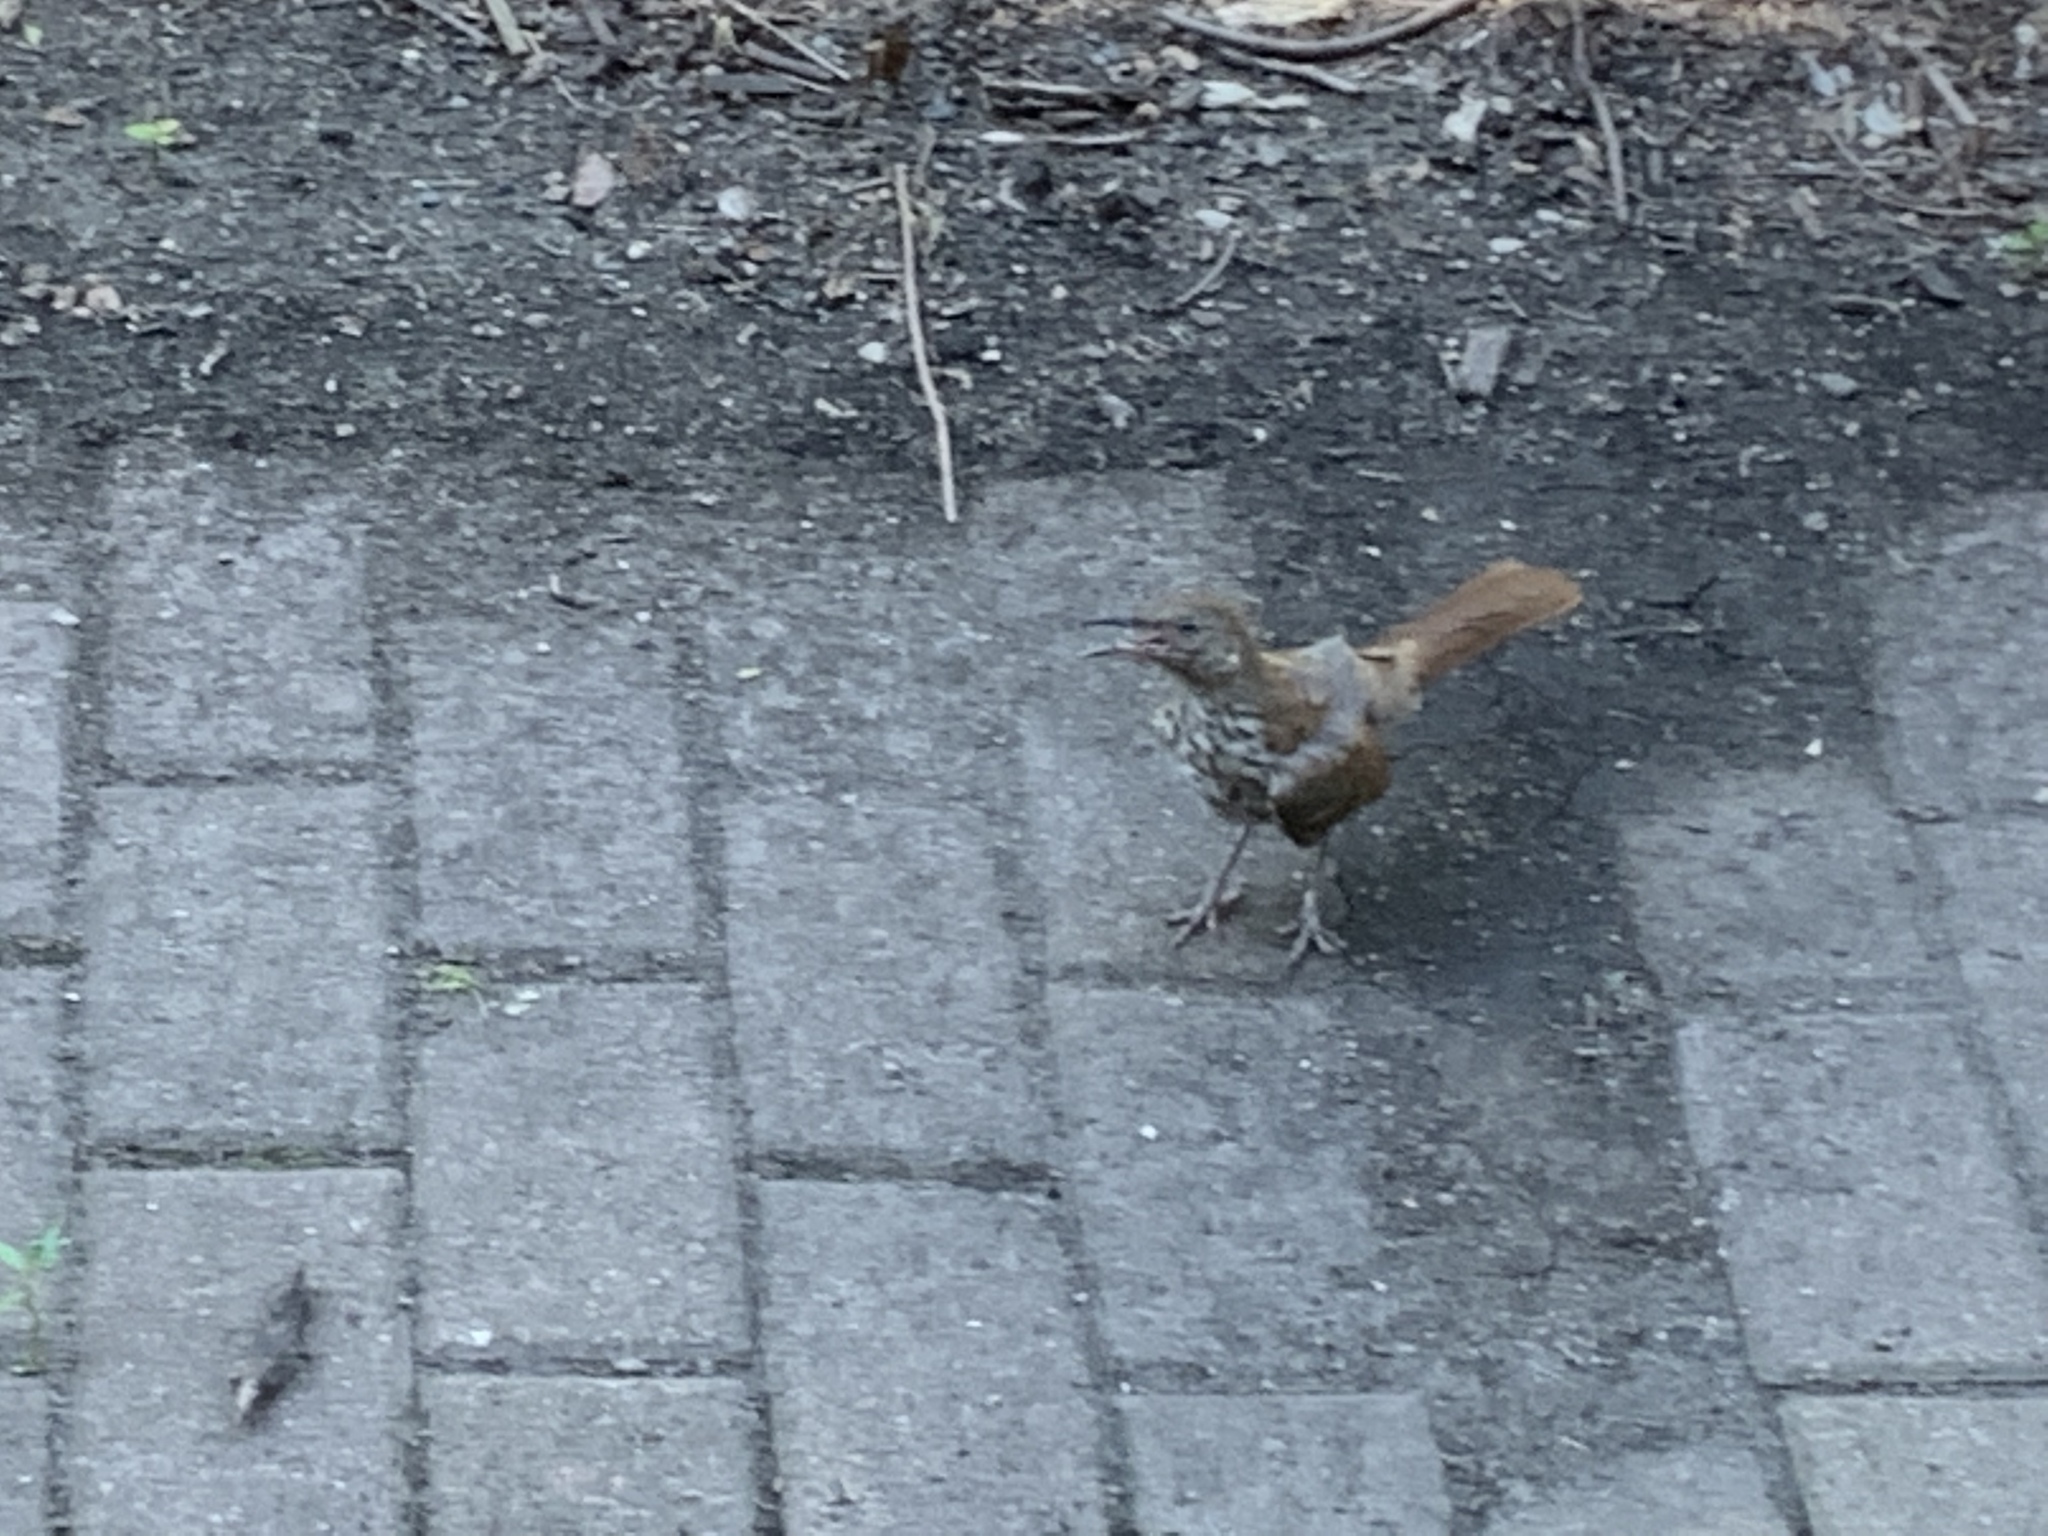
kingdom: Animalia
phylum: Chordata
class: Aves
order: Passeriformes
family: Mimidae
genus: Toxostoma
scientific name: Toxostoma rufum
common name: Brown thrasher
